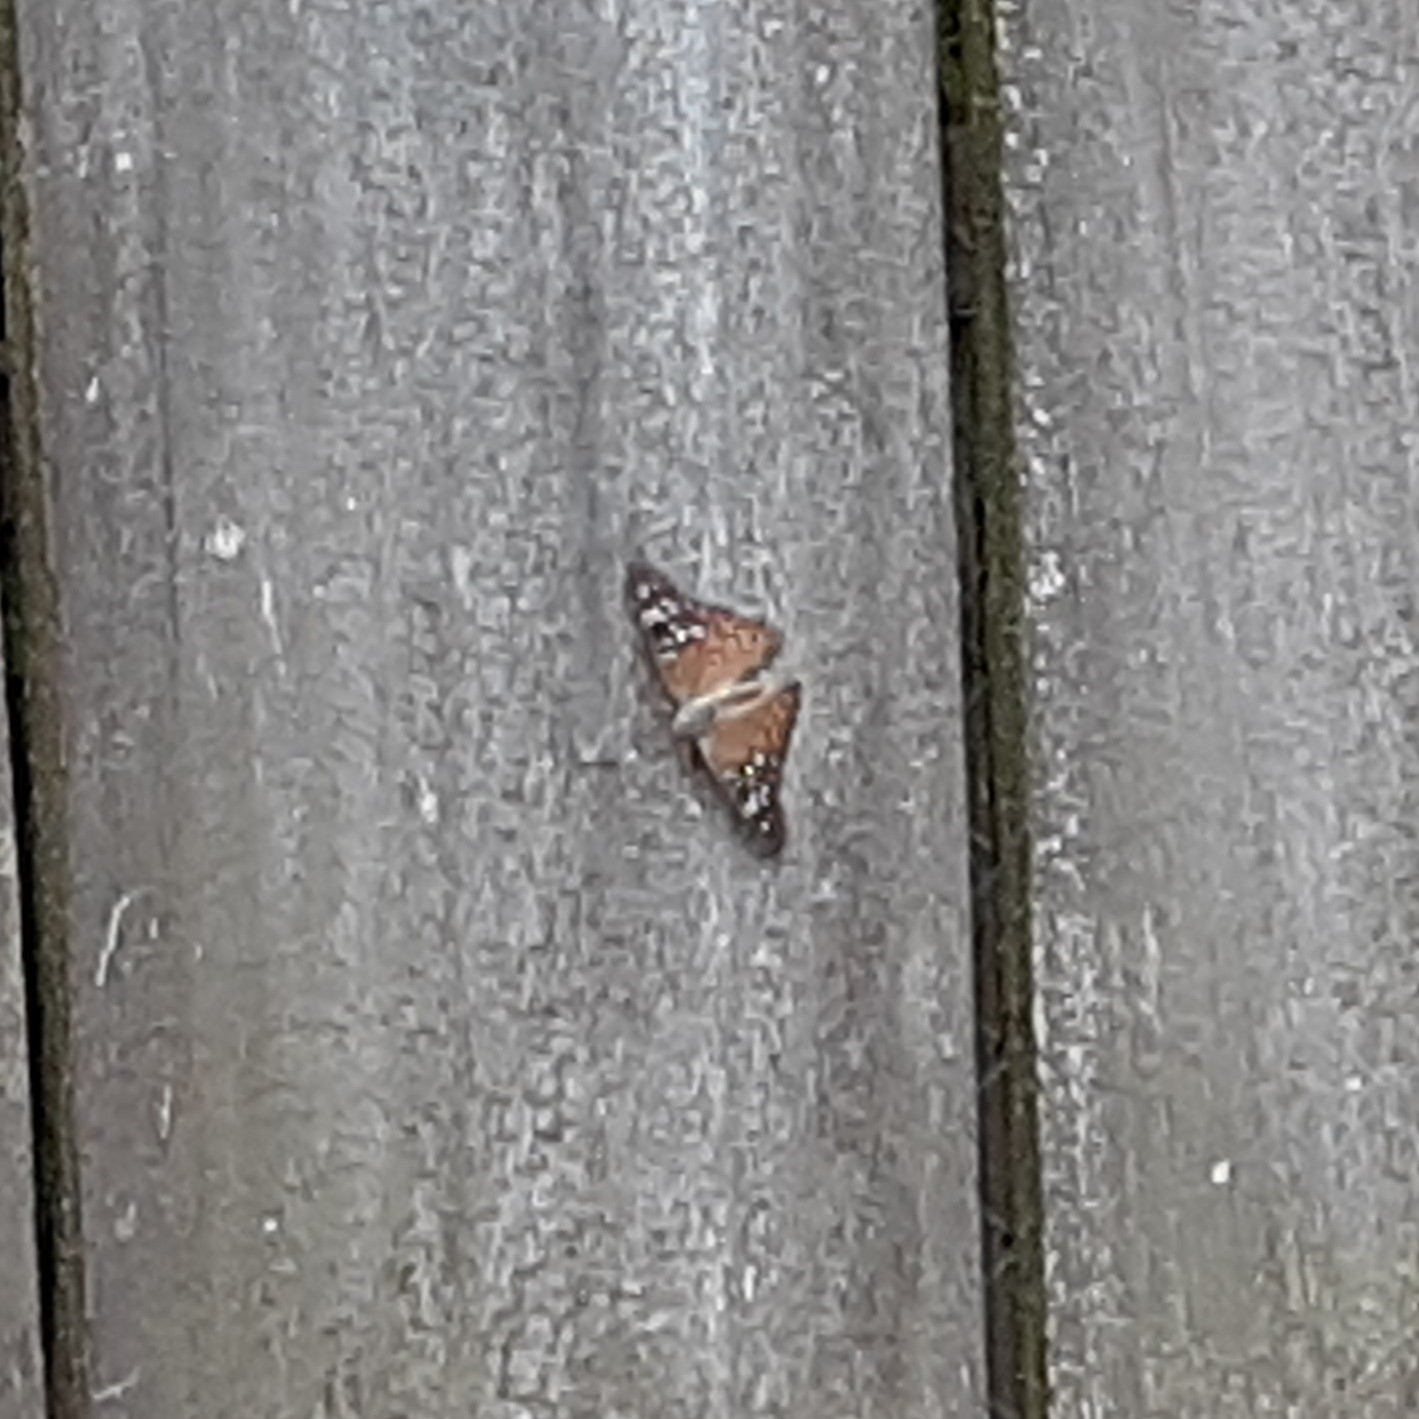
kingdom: Animalia
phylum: Arthropoda
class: Insecta
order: Lepidoptera
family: Nymphalidae
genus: Asterocampa
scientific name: Asterocampa celtis
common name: Hackberry emperor
